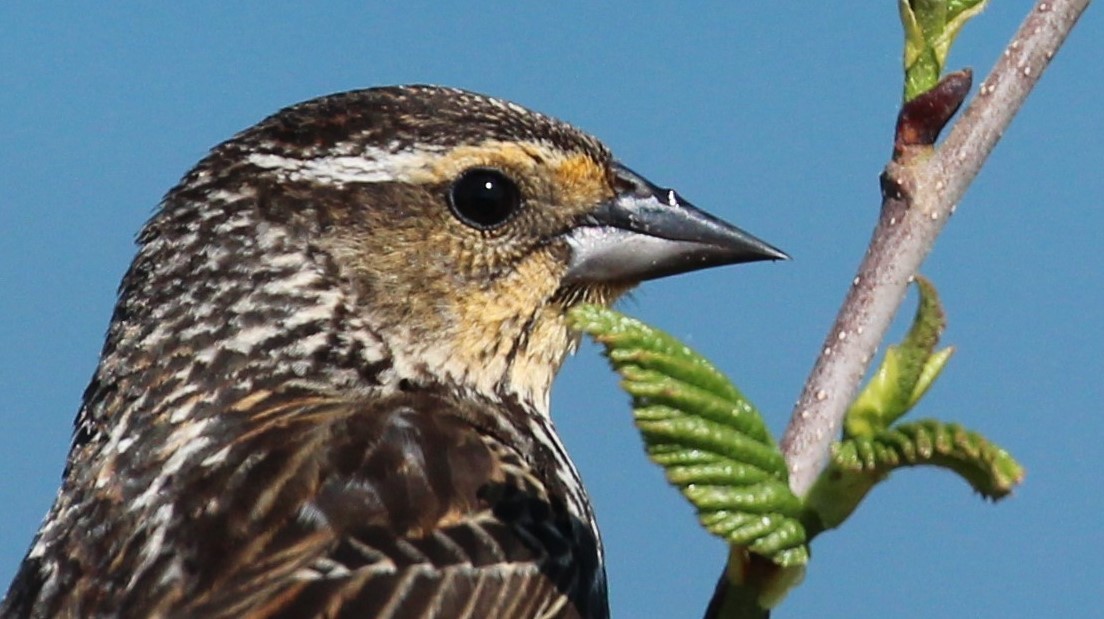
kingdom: Animalia
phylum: Chordata
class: Aves
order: Passeriformes
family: Icteridae
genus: Agelaius
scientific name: Agelaius phoeniceus
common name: Red-winged blackbird
